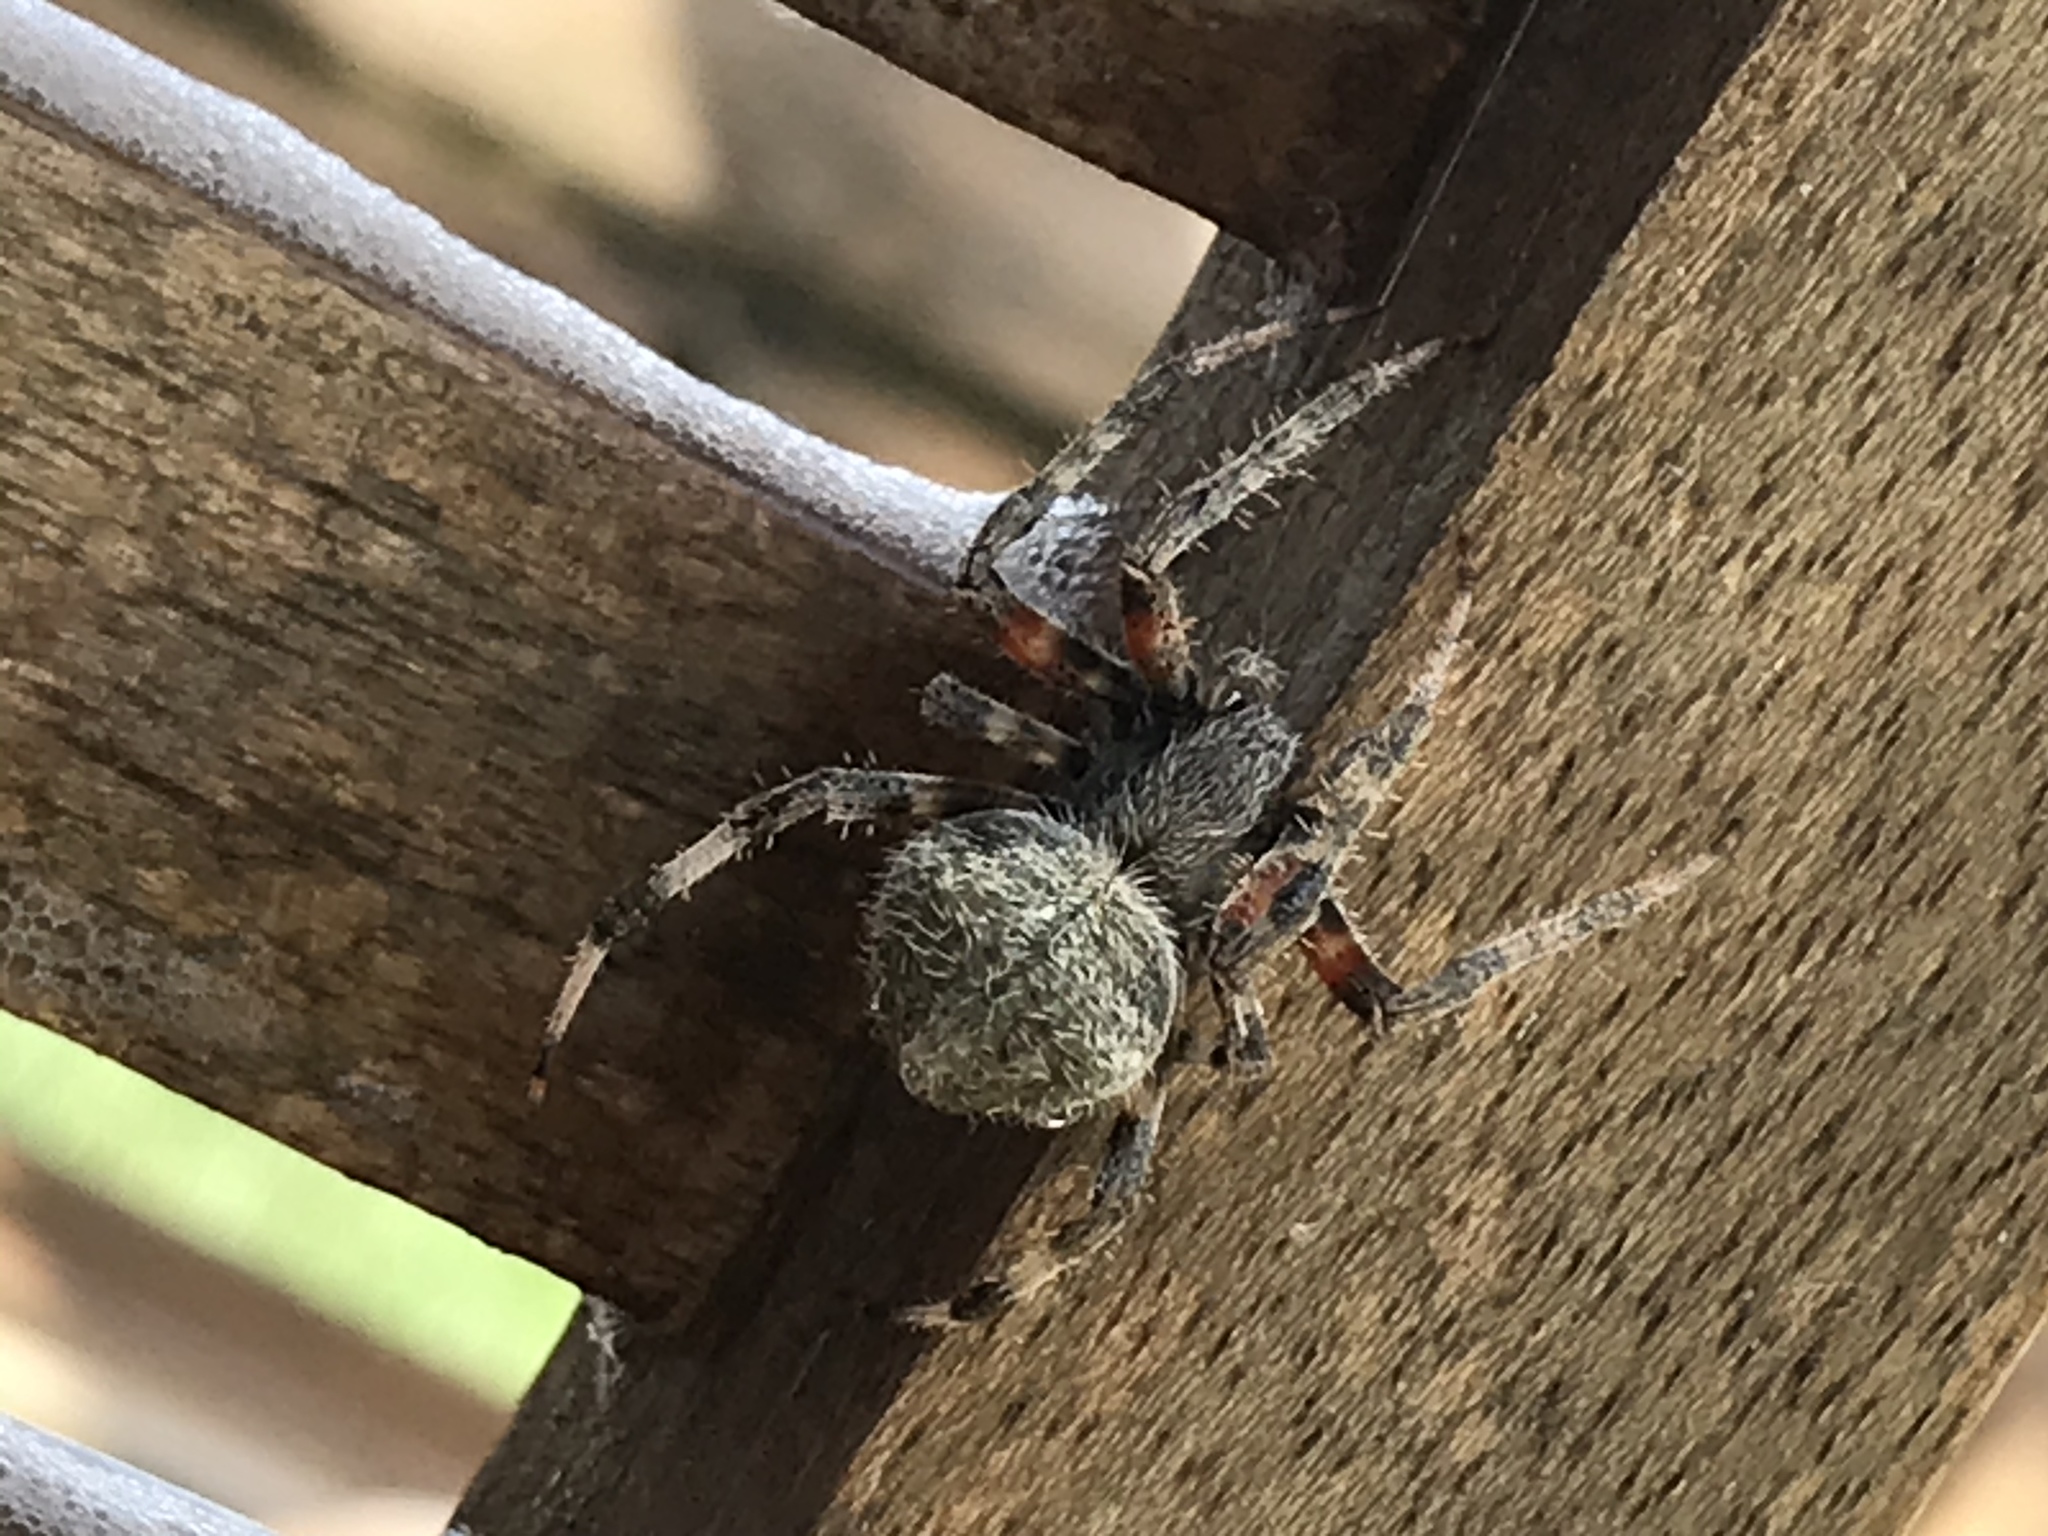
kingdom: Animalia
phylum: Arthropoda
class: Arachnida
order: Araneae
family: Araneidae
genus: Neoscona
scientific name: Neoscona crucifera
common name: Spotted orbweaver
